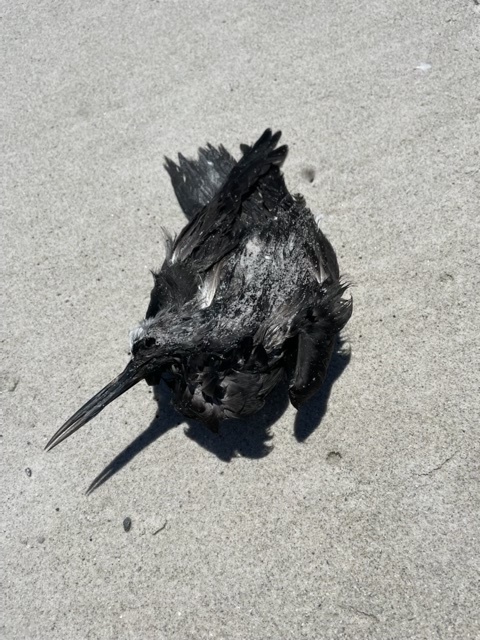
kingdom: Animalia
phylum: Chordata
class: Aves
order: Charadriiformes
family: Laridae
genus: Anous
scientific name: Anous minutus
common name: Black noddy
